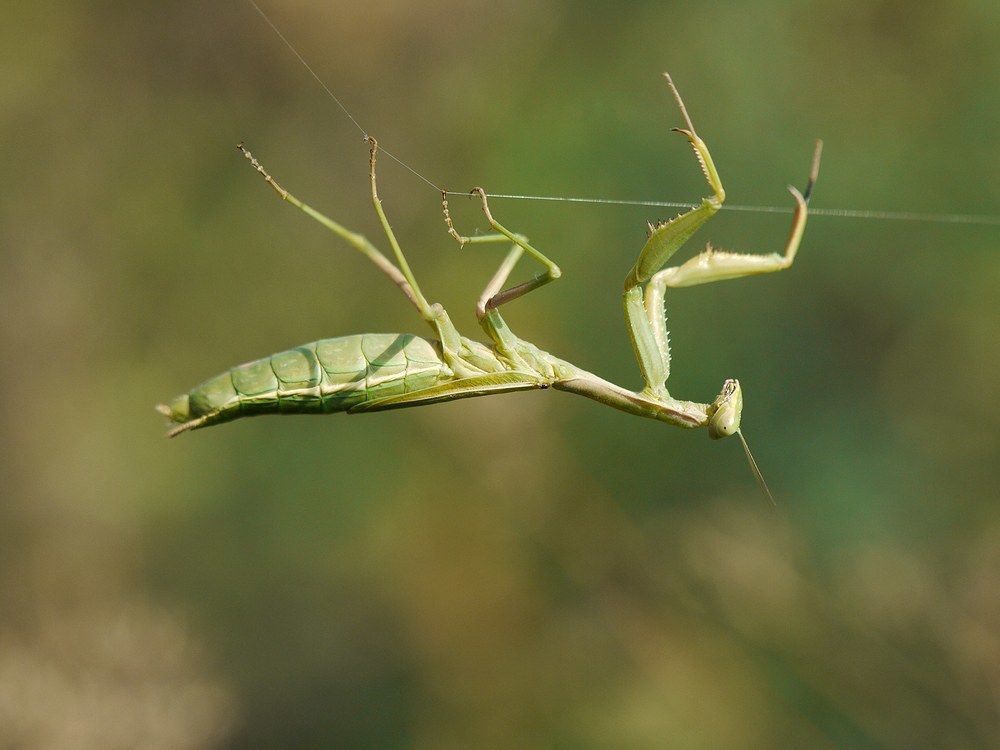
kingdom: Animalia
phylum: Arthropoda
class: Insecta
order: Mantodea
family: Eremiaphilidae
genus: Iris
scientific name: Iris polystictica
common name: Dot-winged mantis
